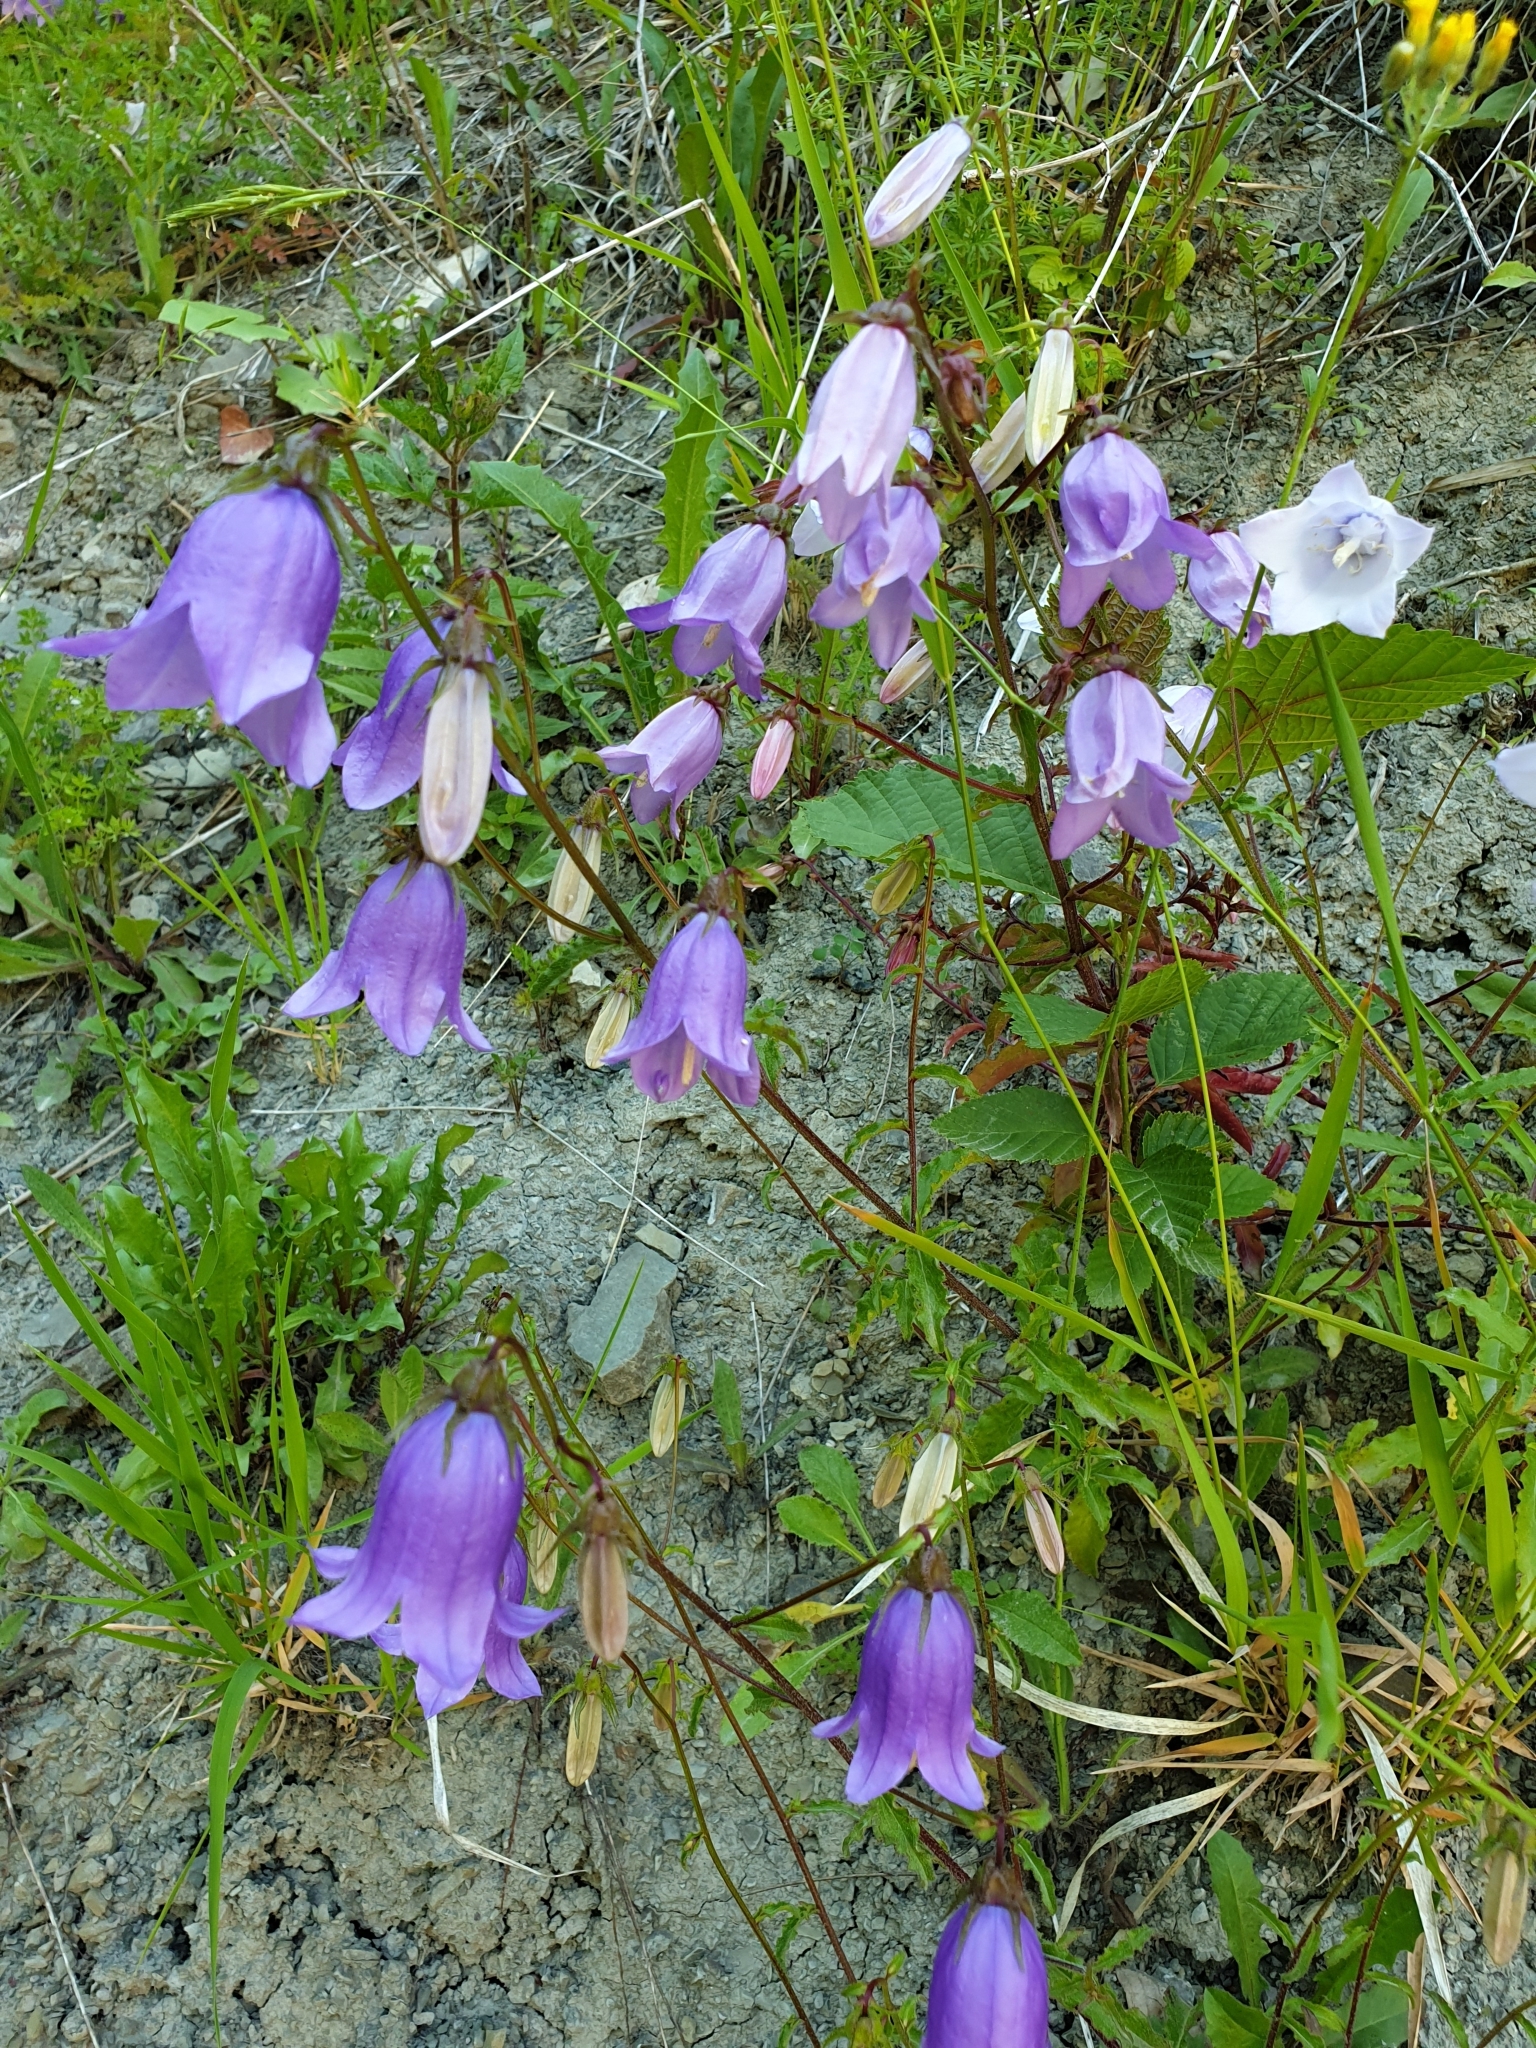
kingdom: Plantae
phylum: Tracheophyta
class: Magnoliopsida
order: Asterales
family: Campanulaceae
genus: Campanula
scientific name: Campanula longistyla
